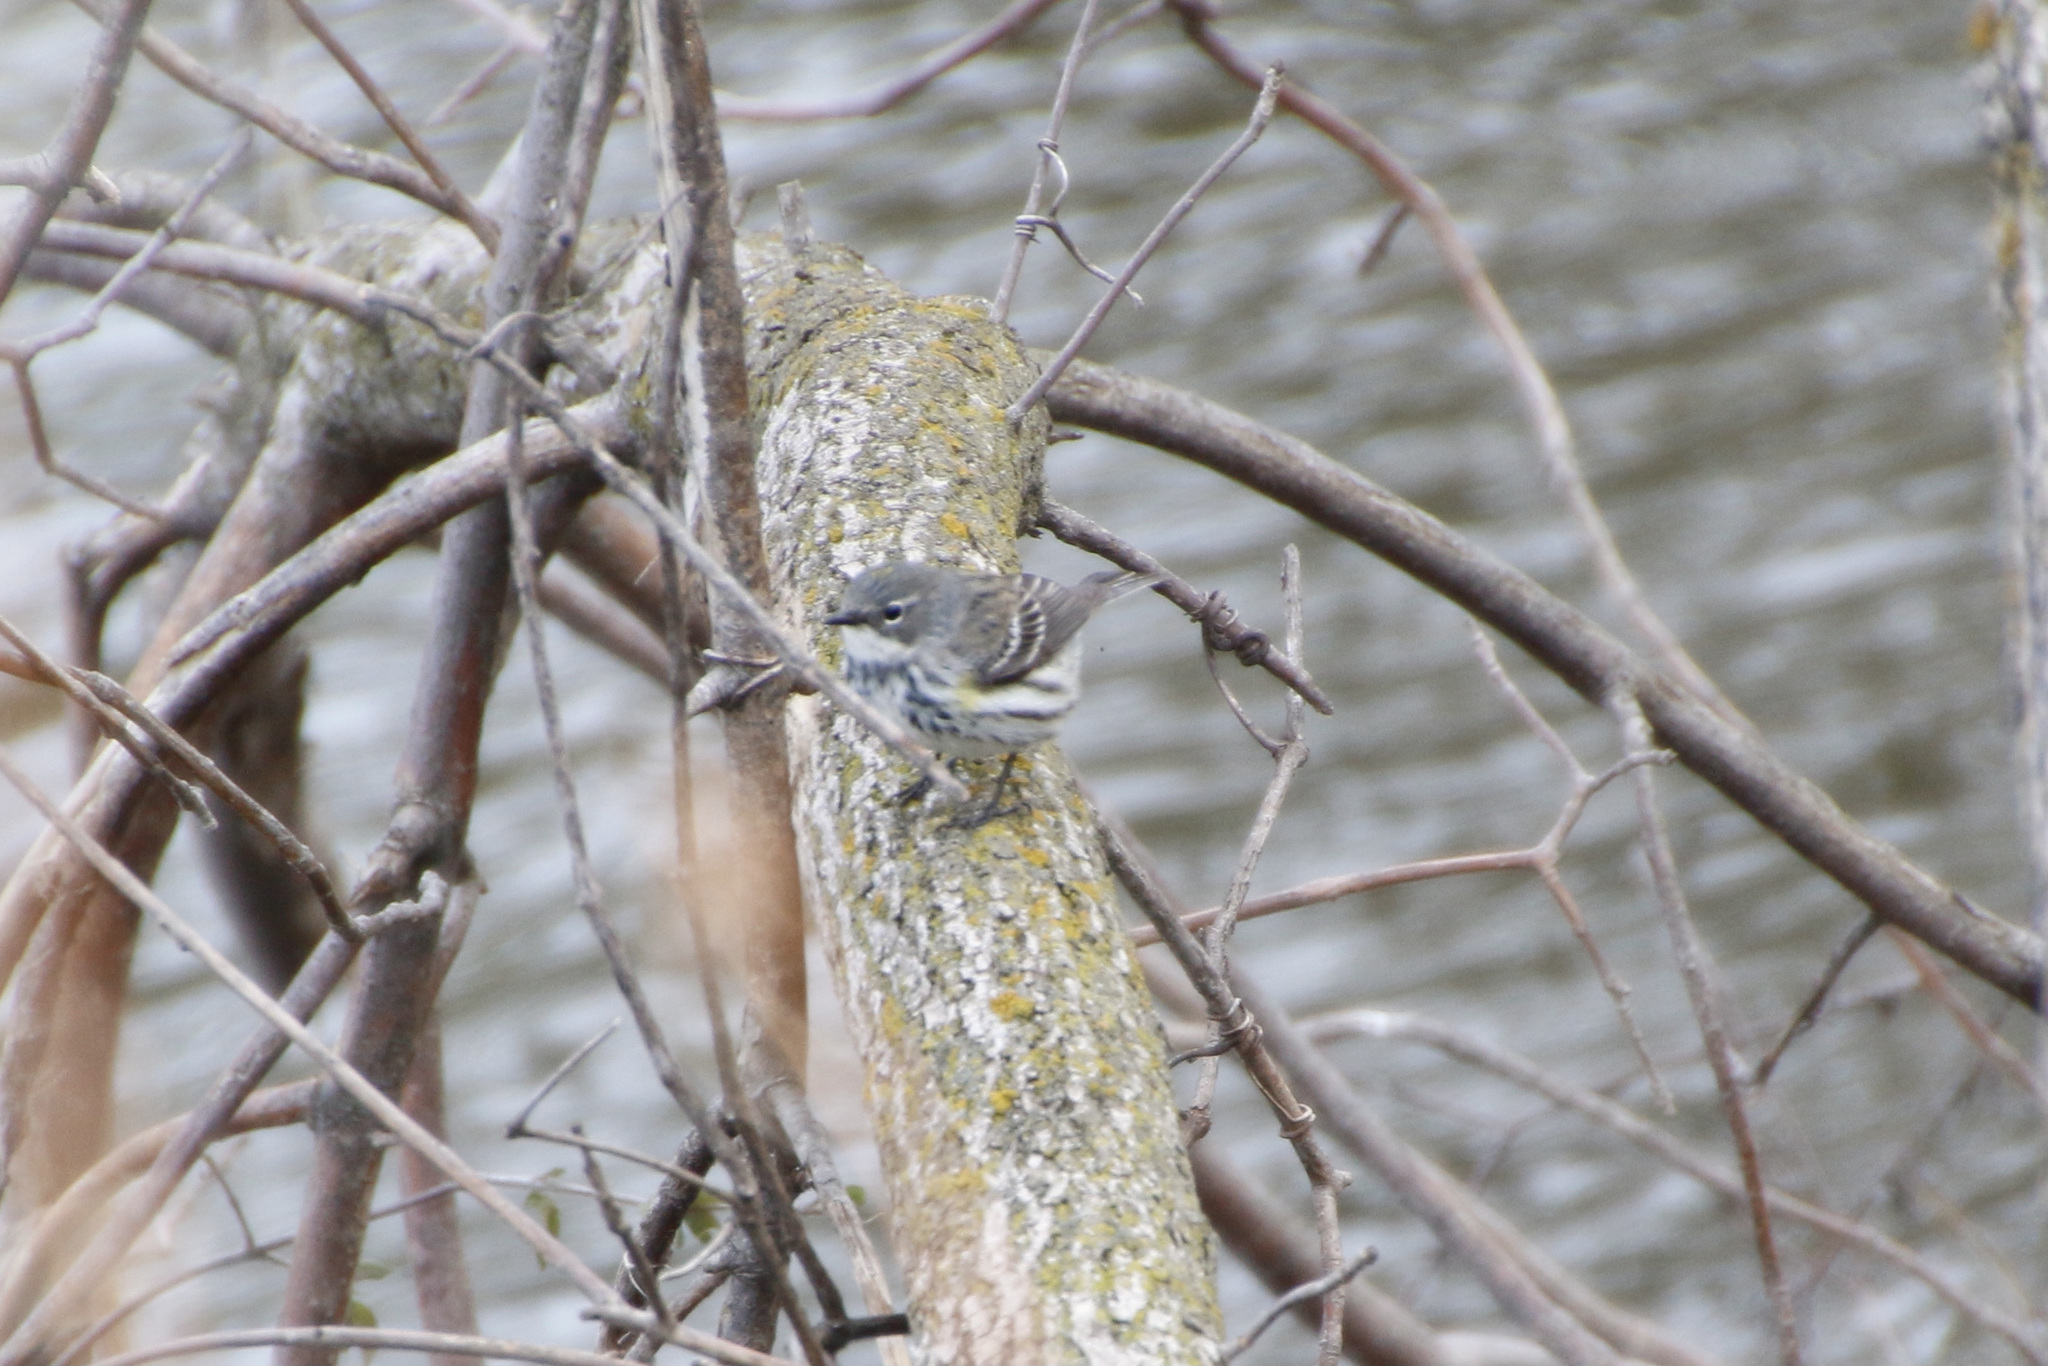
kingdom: Animalia
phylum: Chordata
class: Aves
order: Passeriformes
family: Parulidae
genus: Setophaga
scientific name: Setophaga coronata
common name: Myrtle warbler
